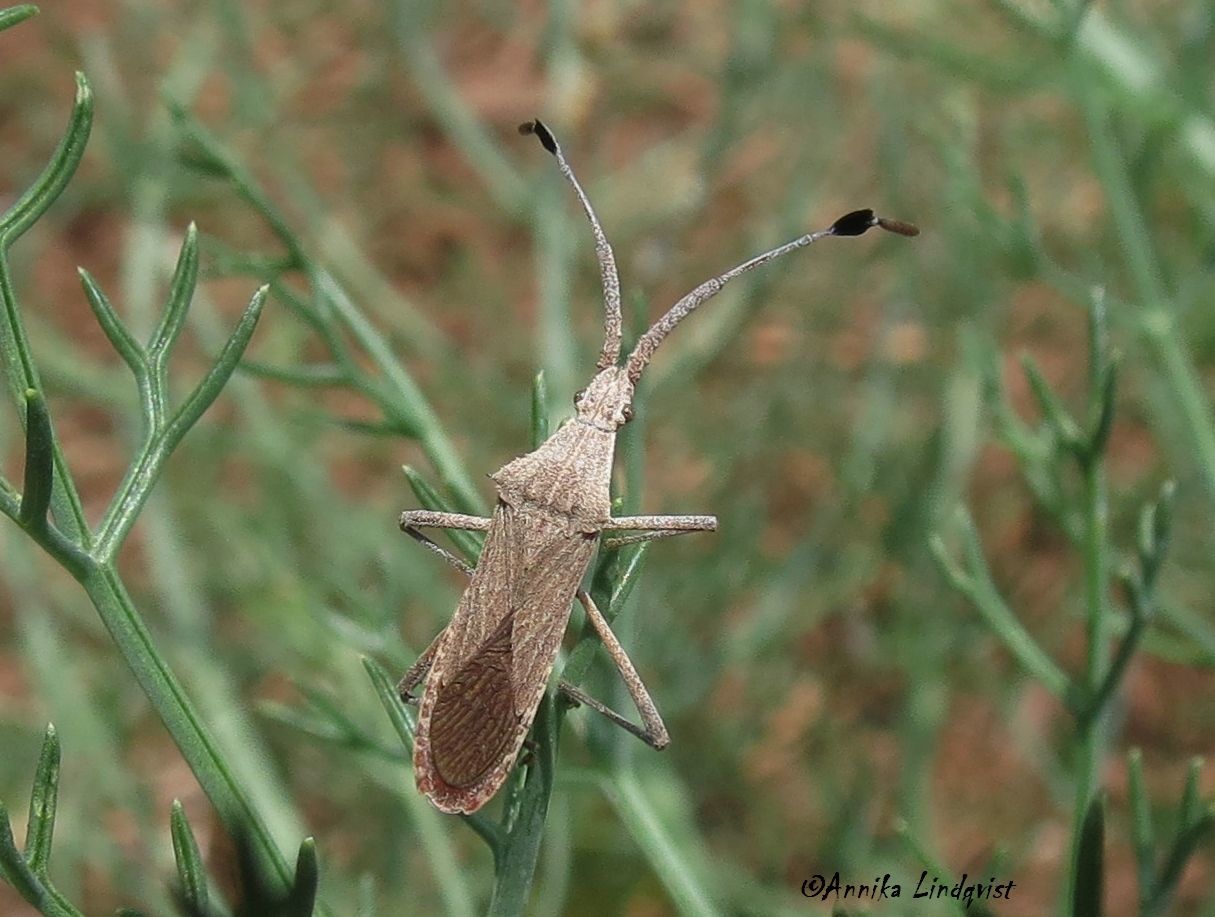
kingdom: Animalia
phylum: Arthropoda
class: Insecta
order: Hemiptera
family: Coreidae
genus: Chariesterus
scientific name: Chariesterus antennator
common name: Flat horned coreid
